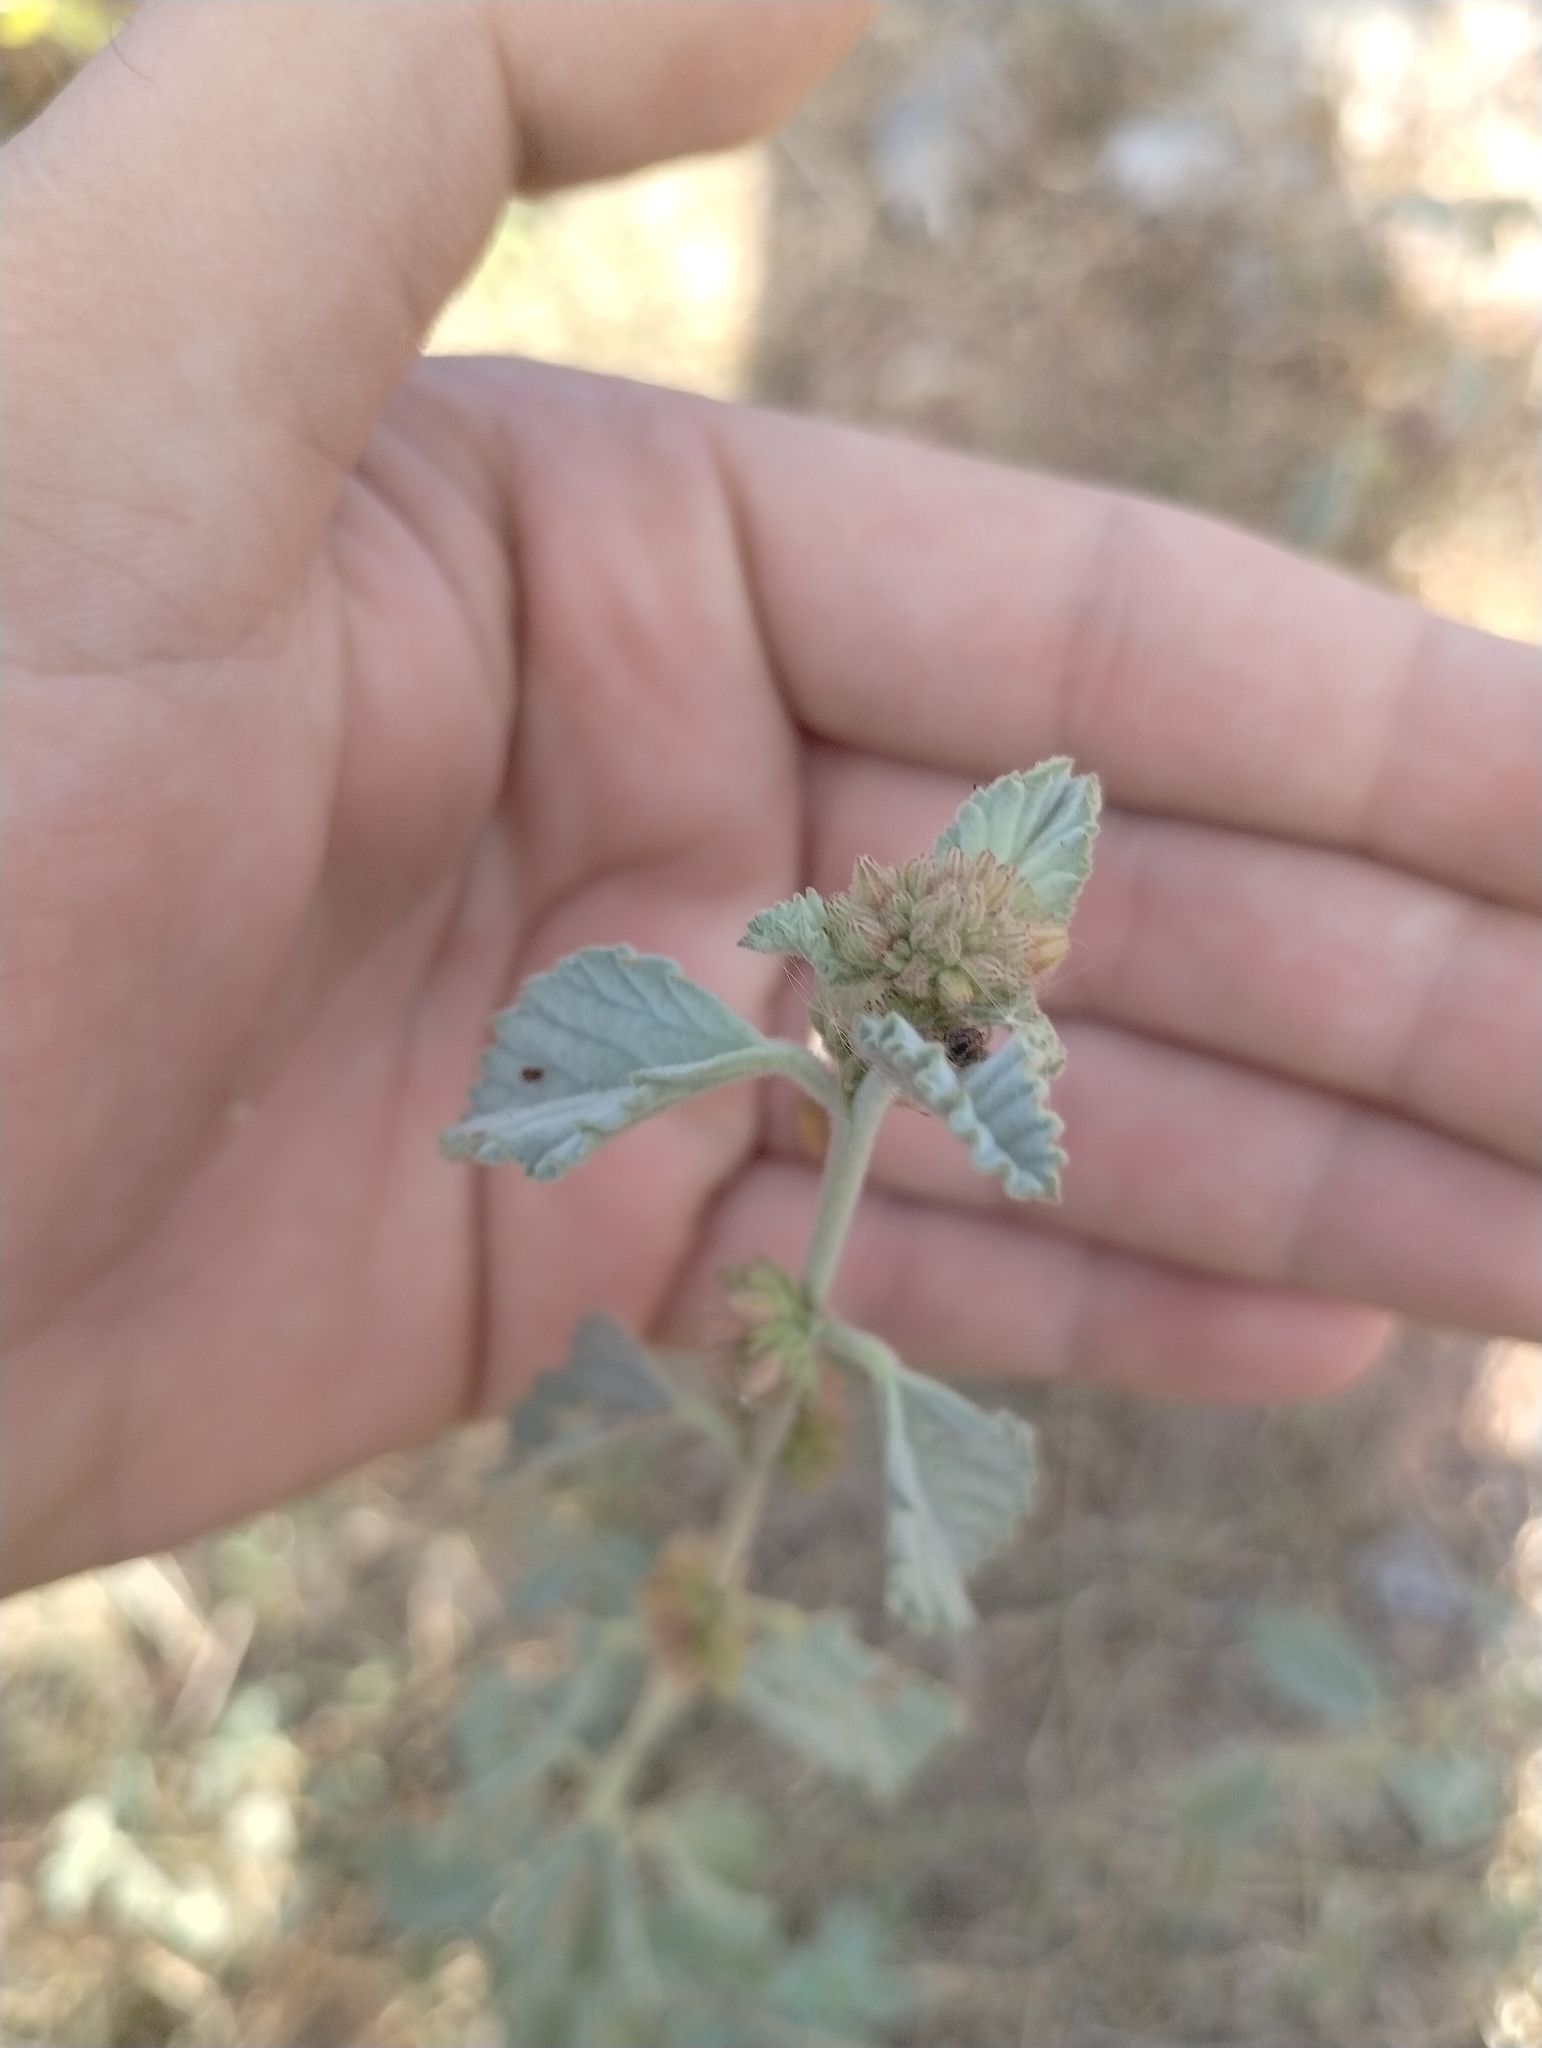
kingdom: Plantae
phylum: Tracheophyta
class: Magnoliopsida
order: Malvales
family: Malvaceae
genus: Waltheria
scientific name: Waltheria rotundifolia
